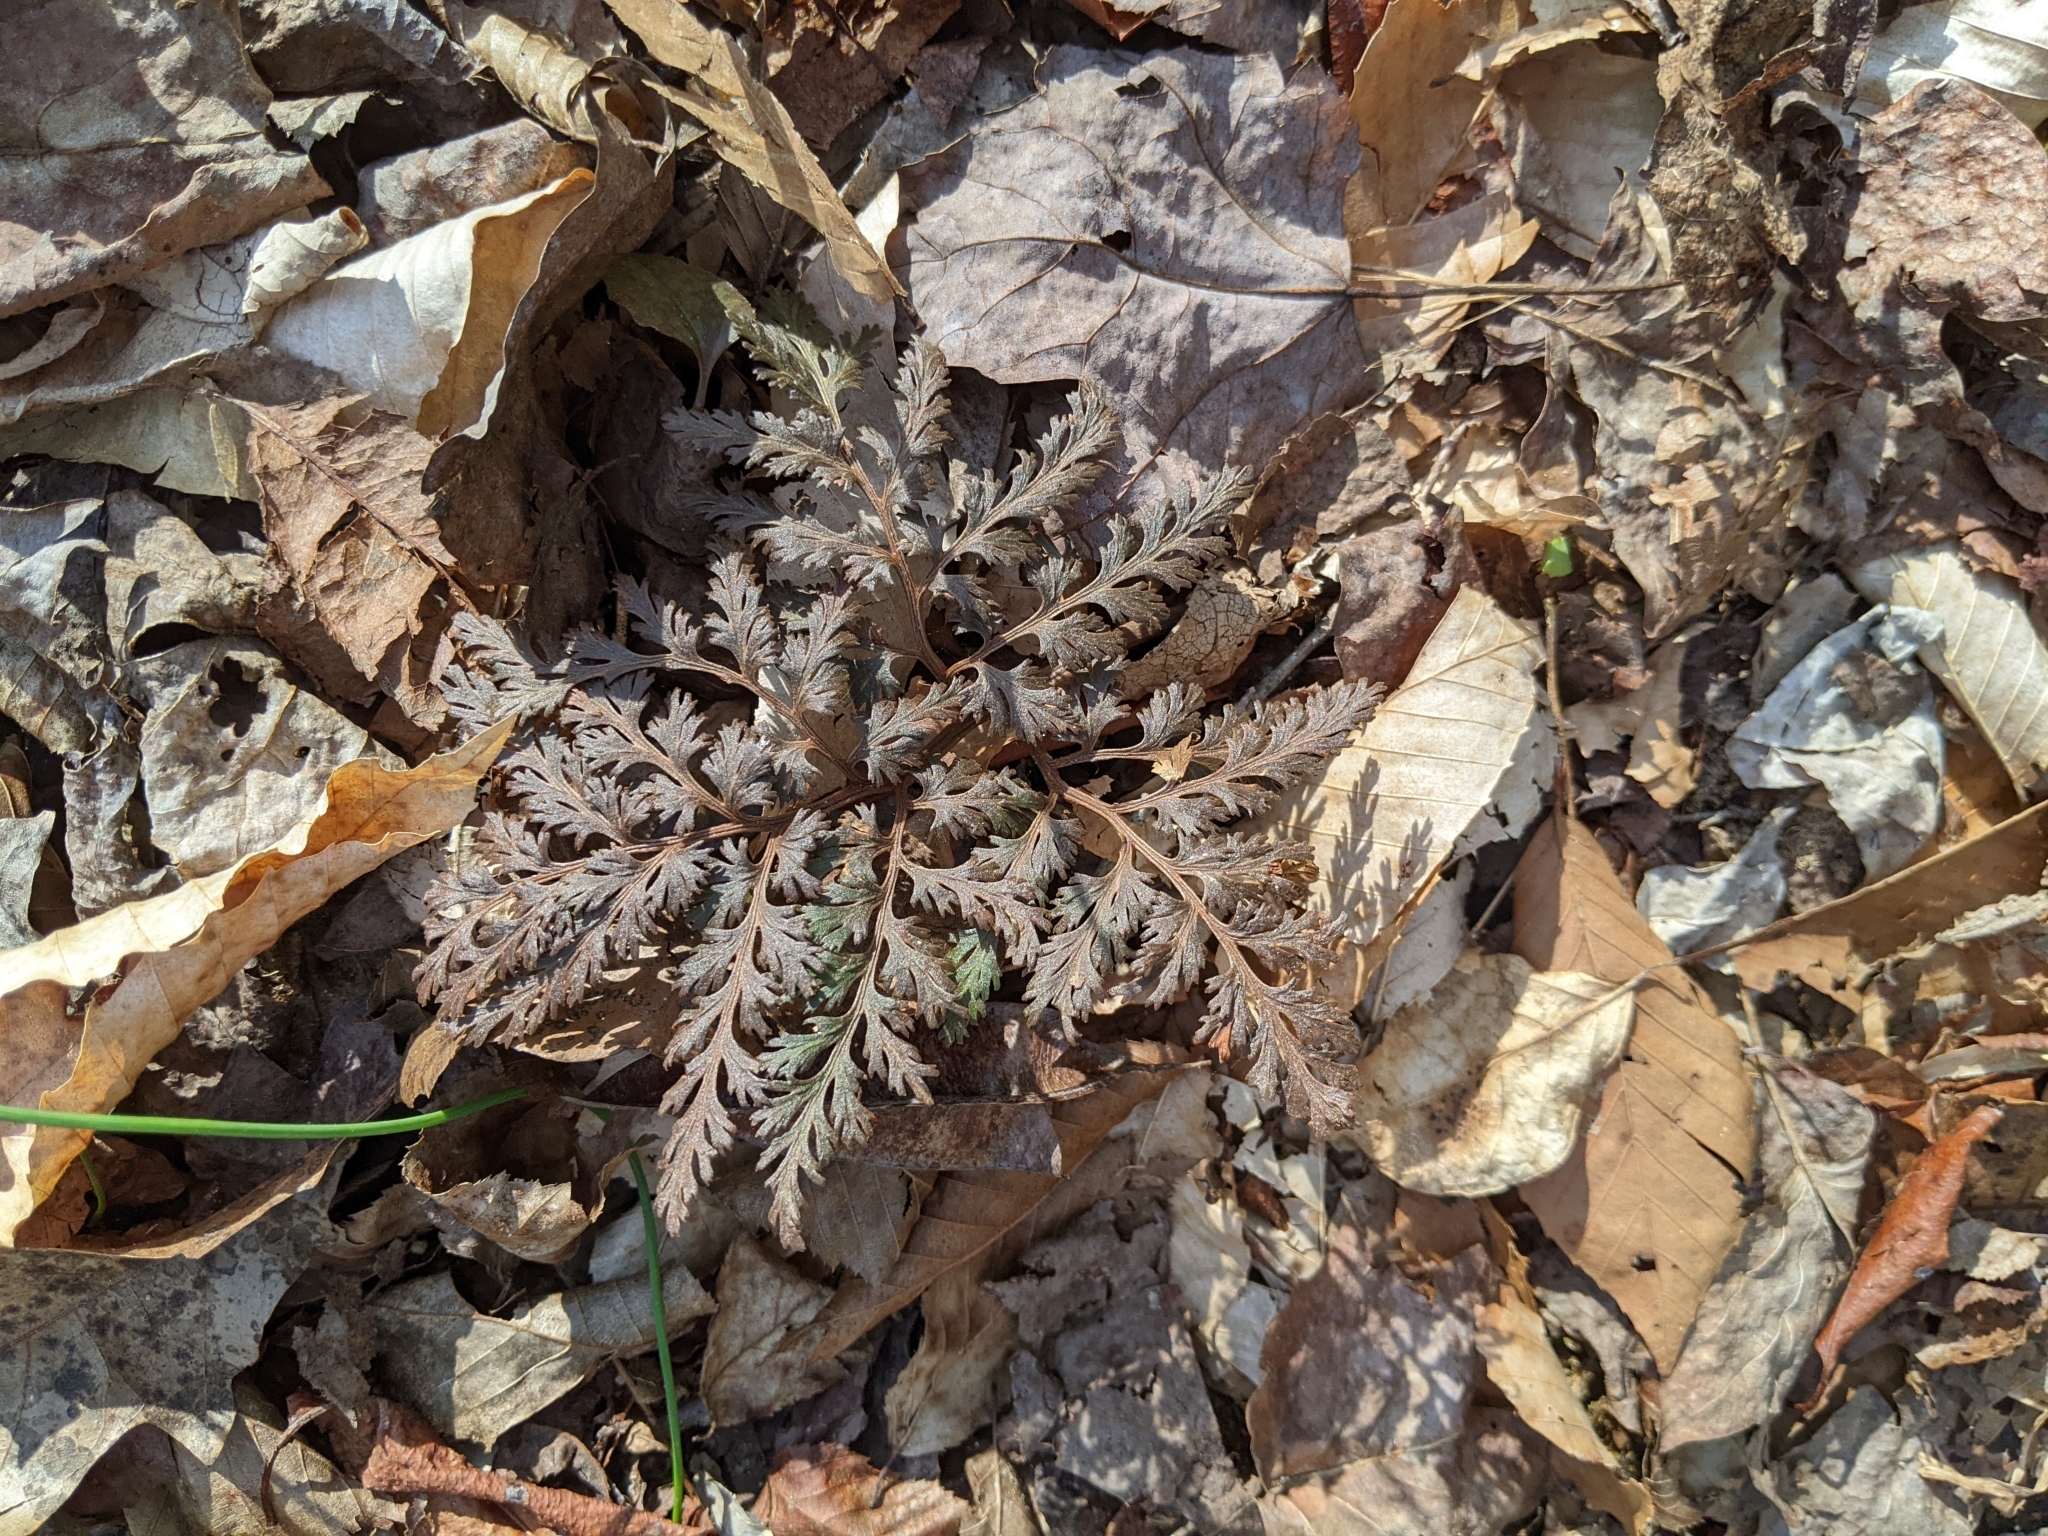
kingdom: Plantae
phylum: Tracheophyta
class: Polypodiopsida
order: Ophioglossales
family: Ophioglossaceae
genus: Sceptridium
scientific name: Sceptridium dissectum
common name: Cut-leaved grapefern
